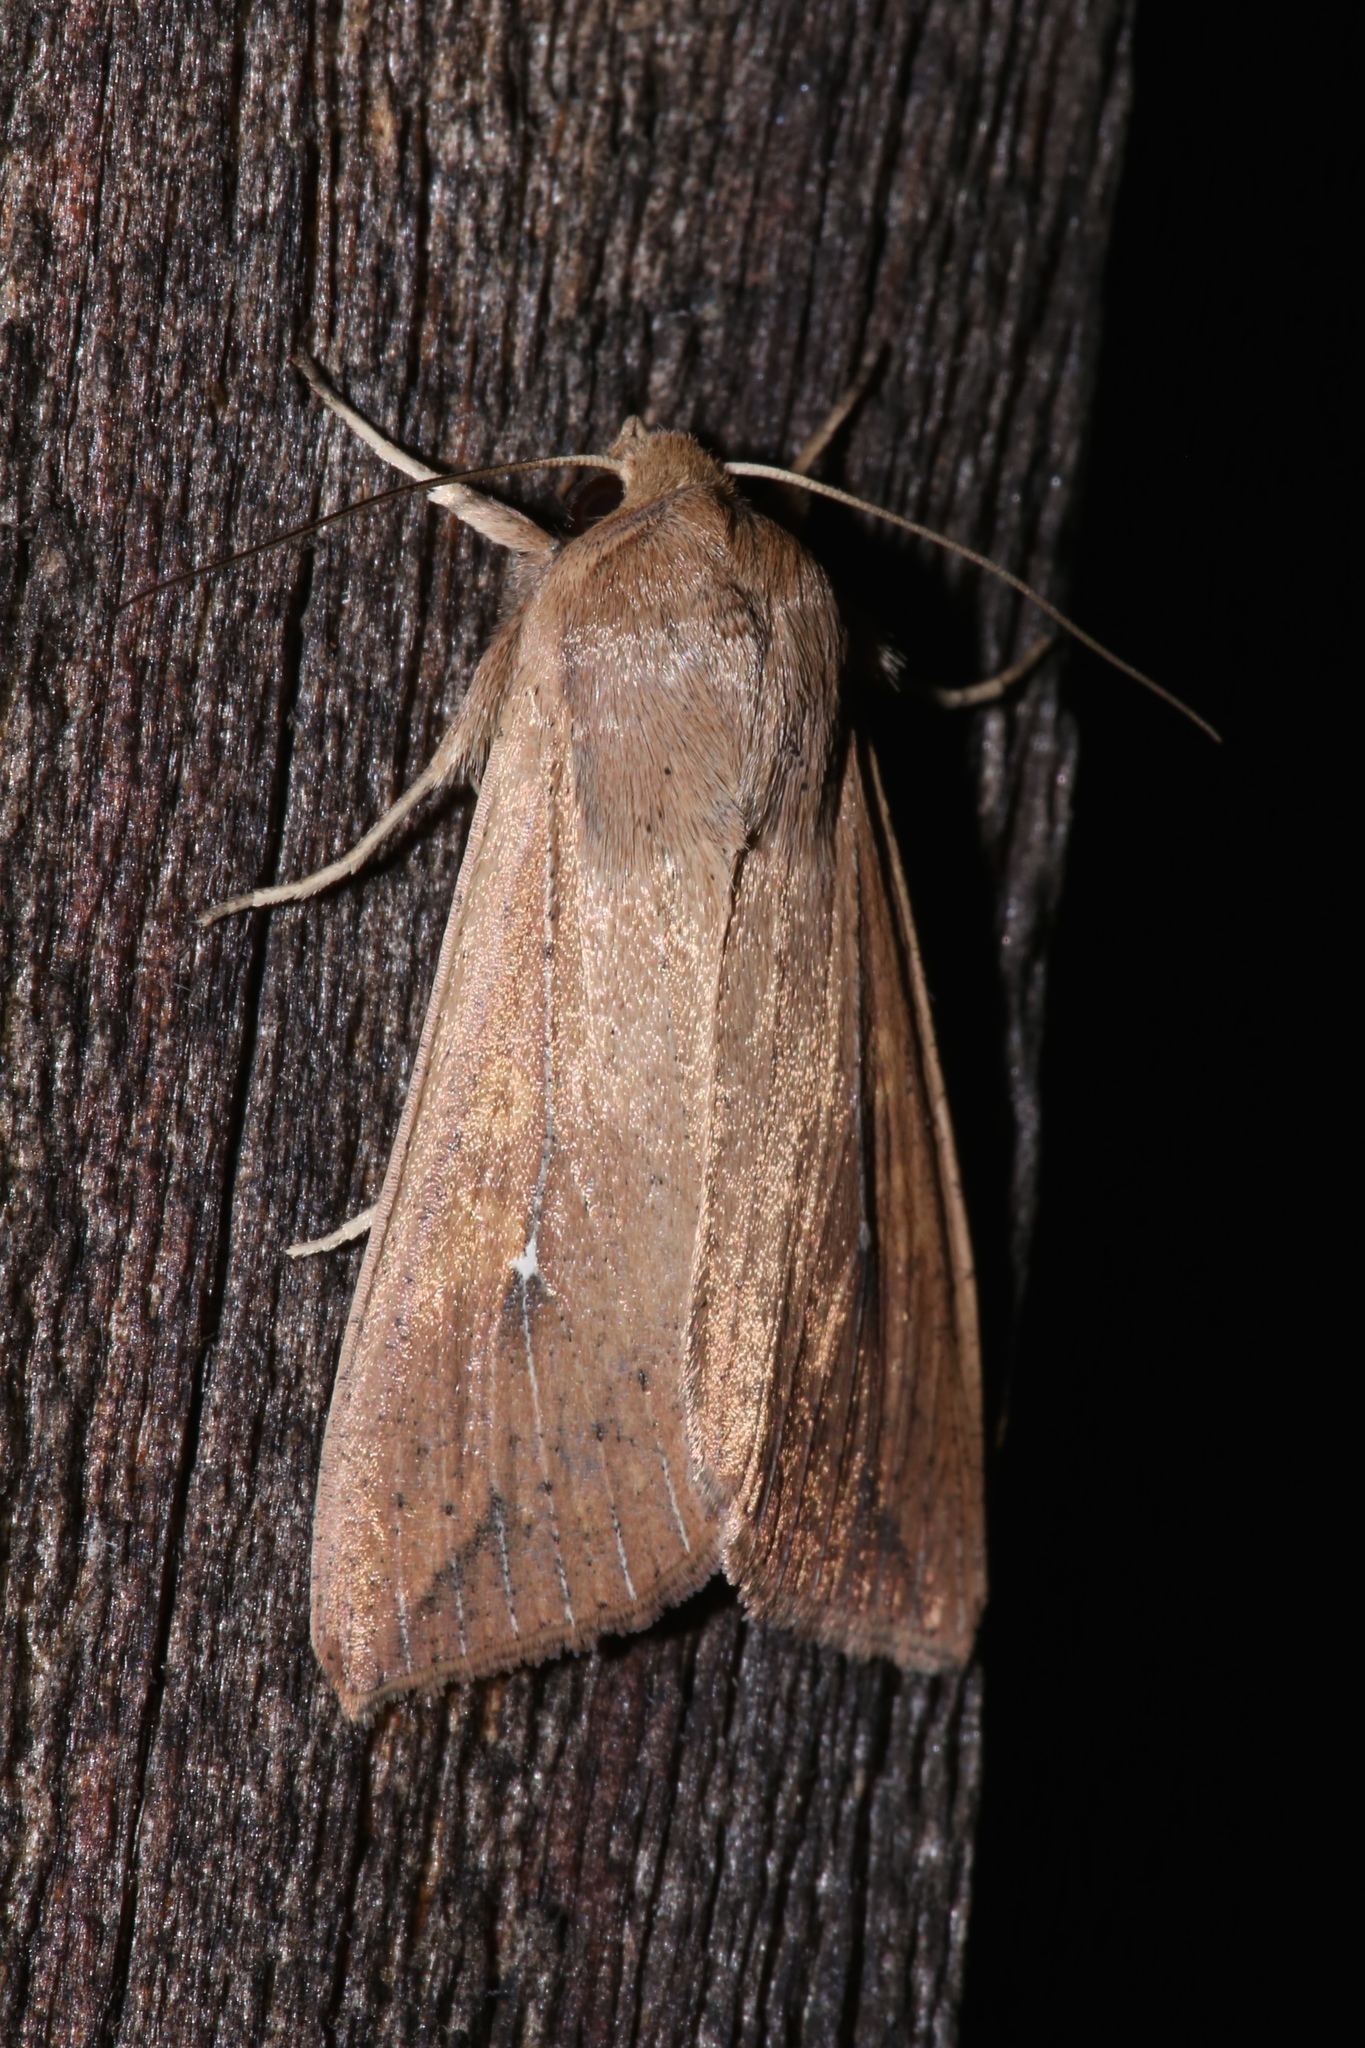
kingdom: Animalia
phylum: Arthropoda
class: Insecta
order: Lepidoptera
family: Noctuidae
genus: Mythimna
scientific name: Mythimna unipuncta
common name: White-speck
